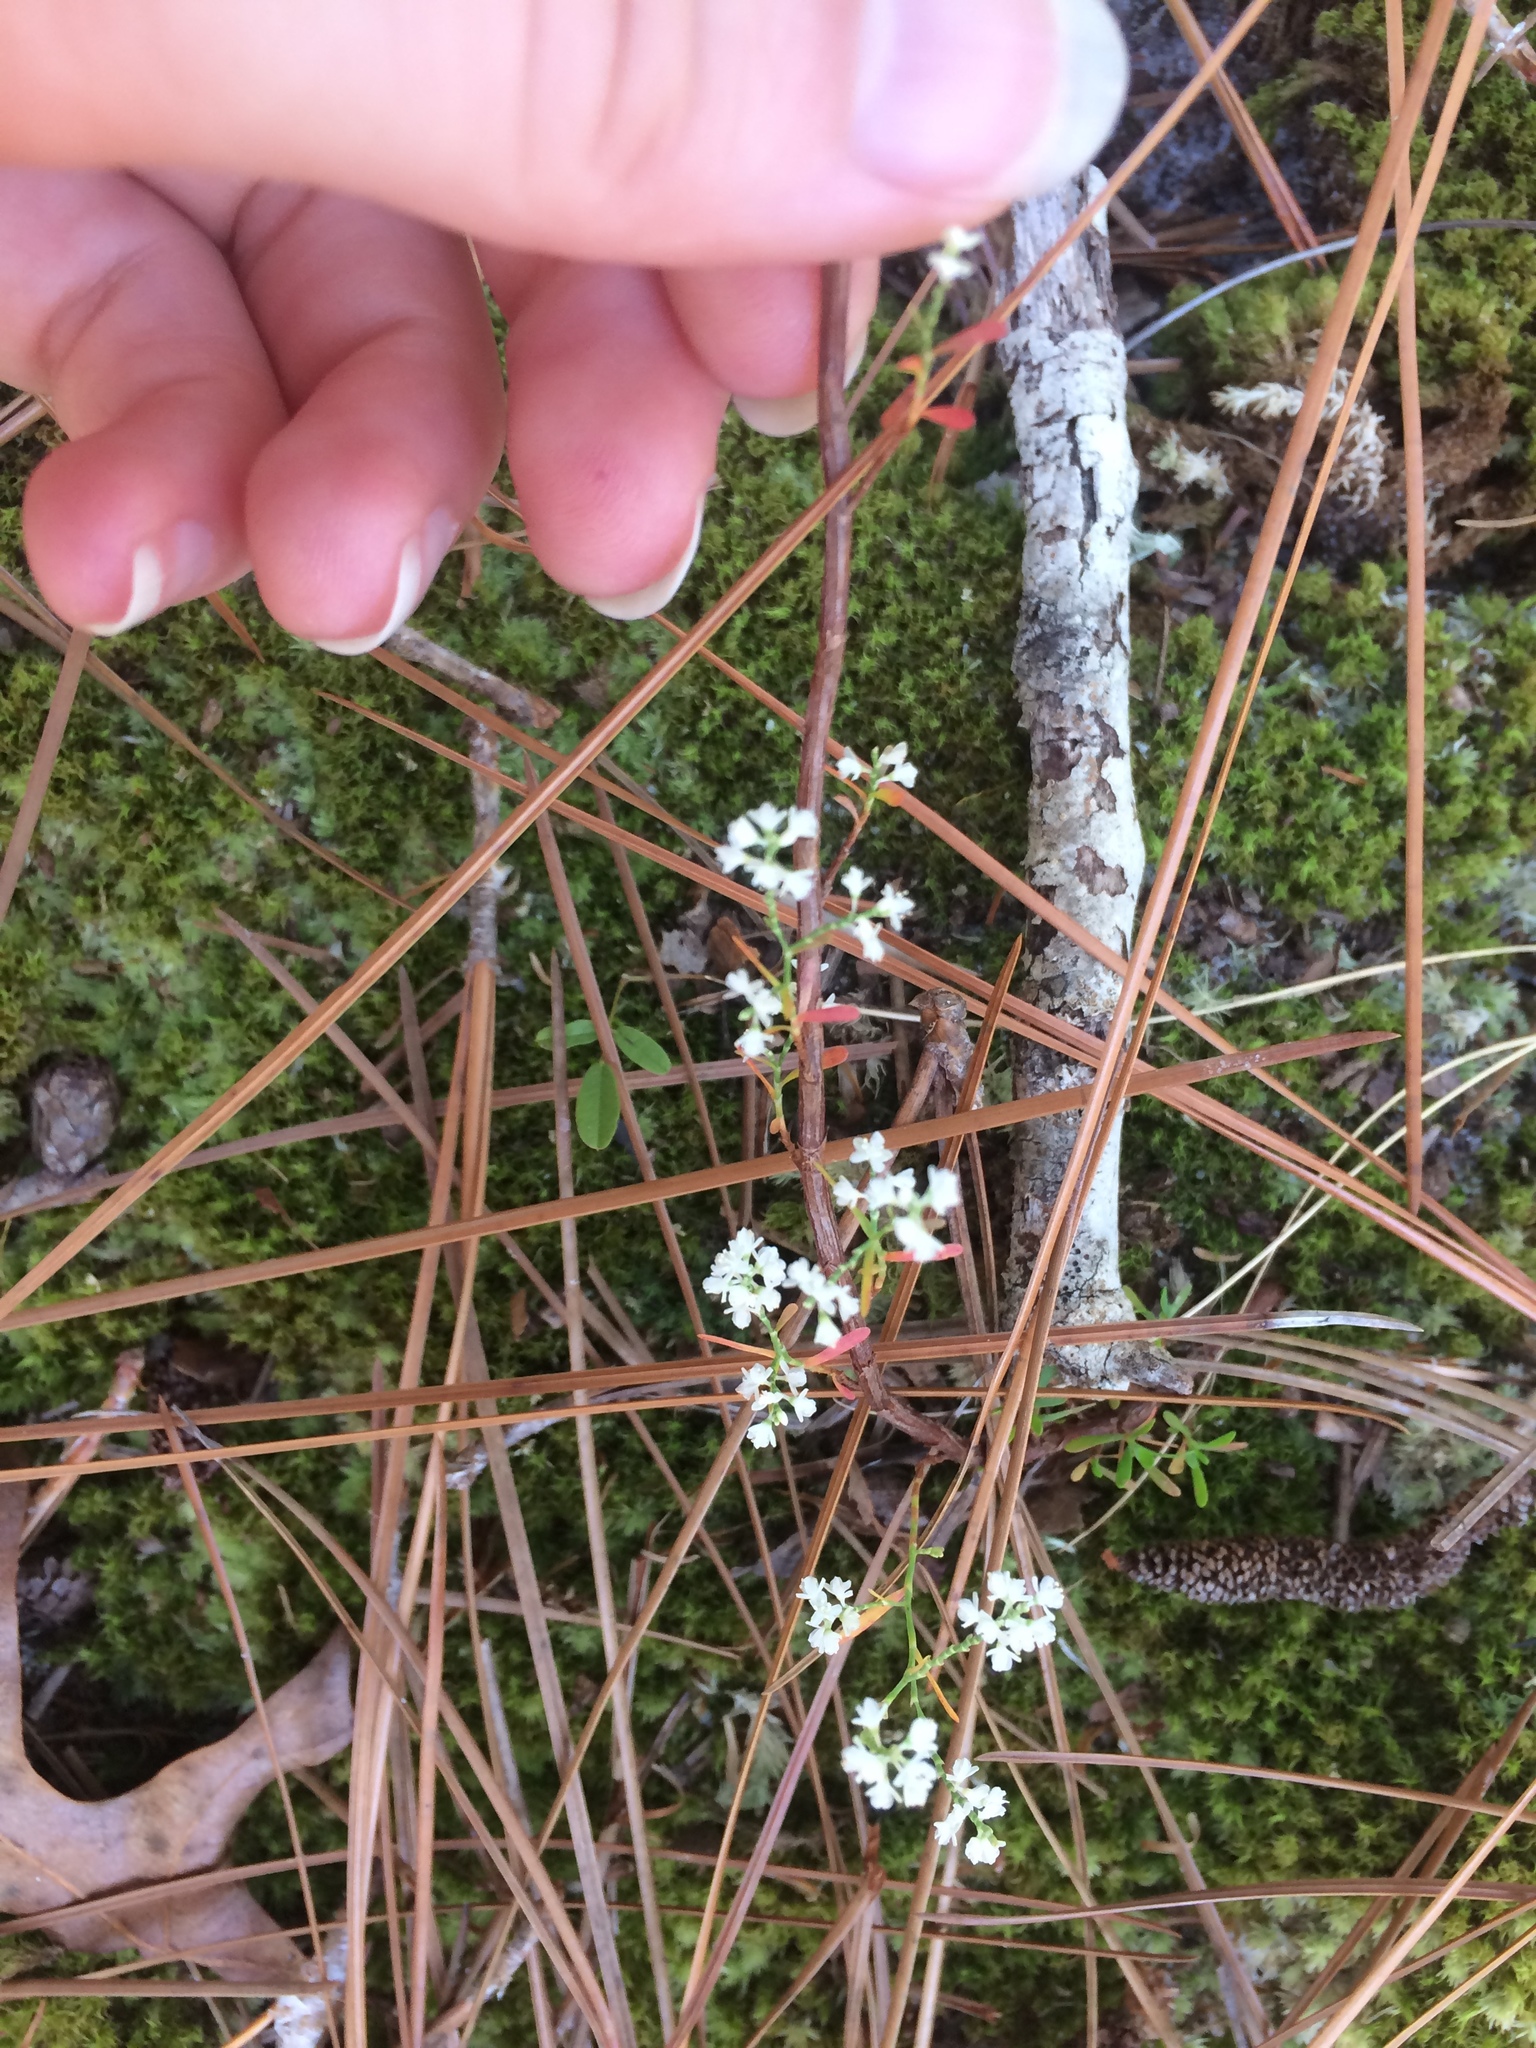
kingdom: Plantae
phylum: Tracheophyta
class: Magnoliopsida
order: Caryophyllales
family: Polygonaceae
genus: Polygonella
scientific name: Polygonella polygama
